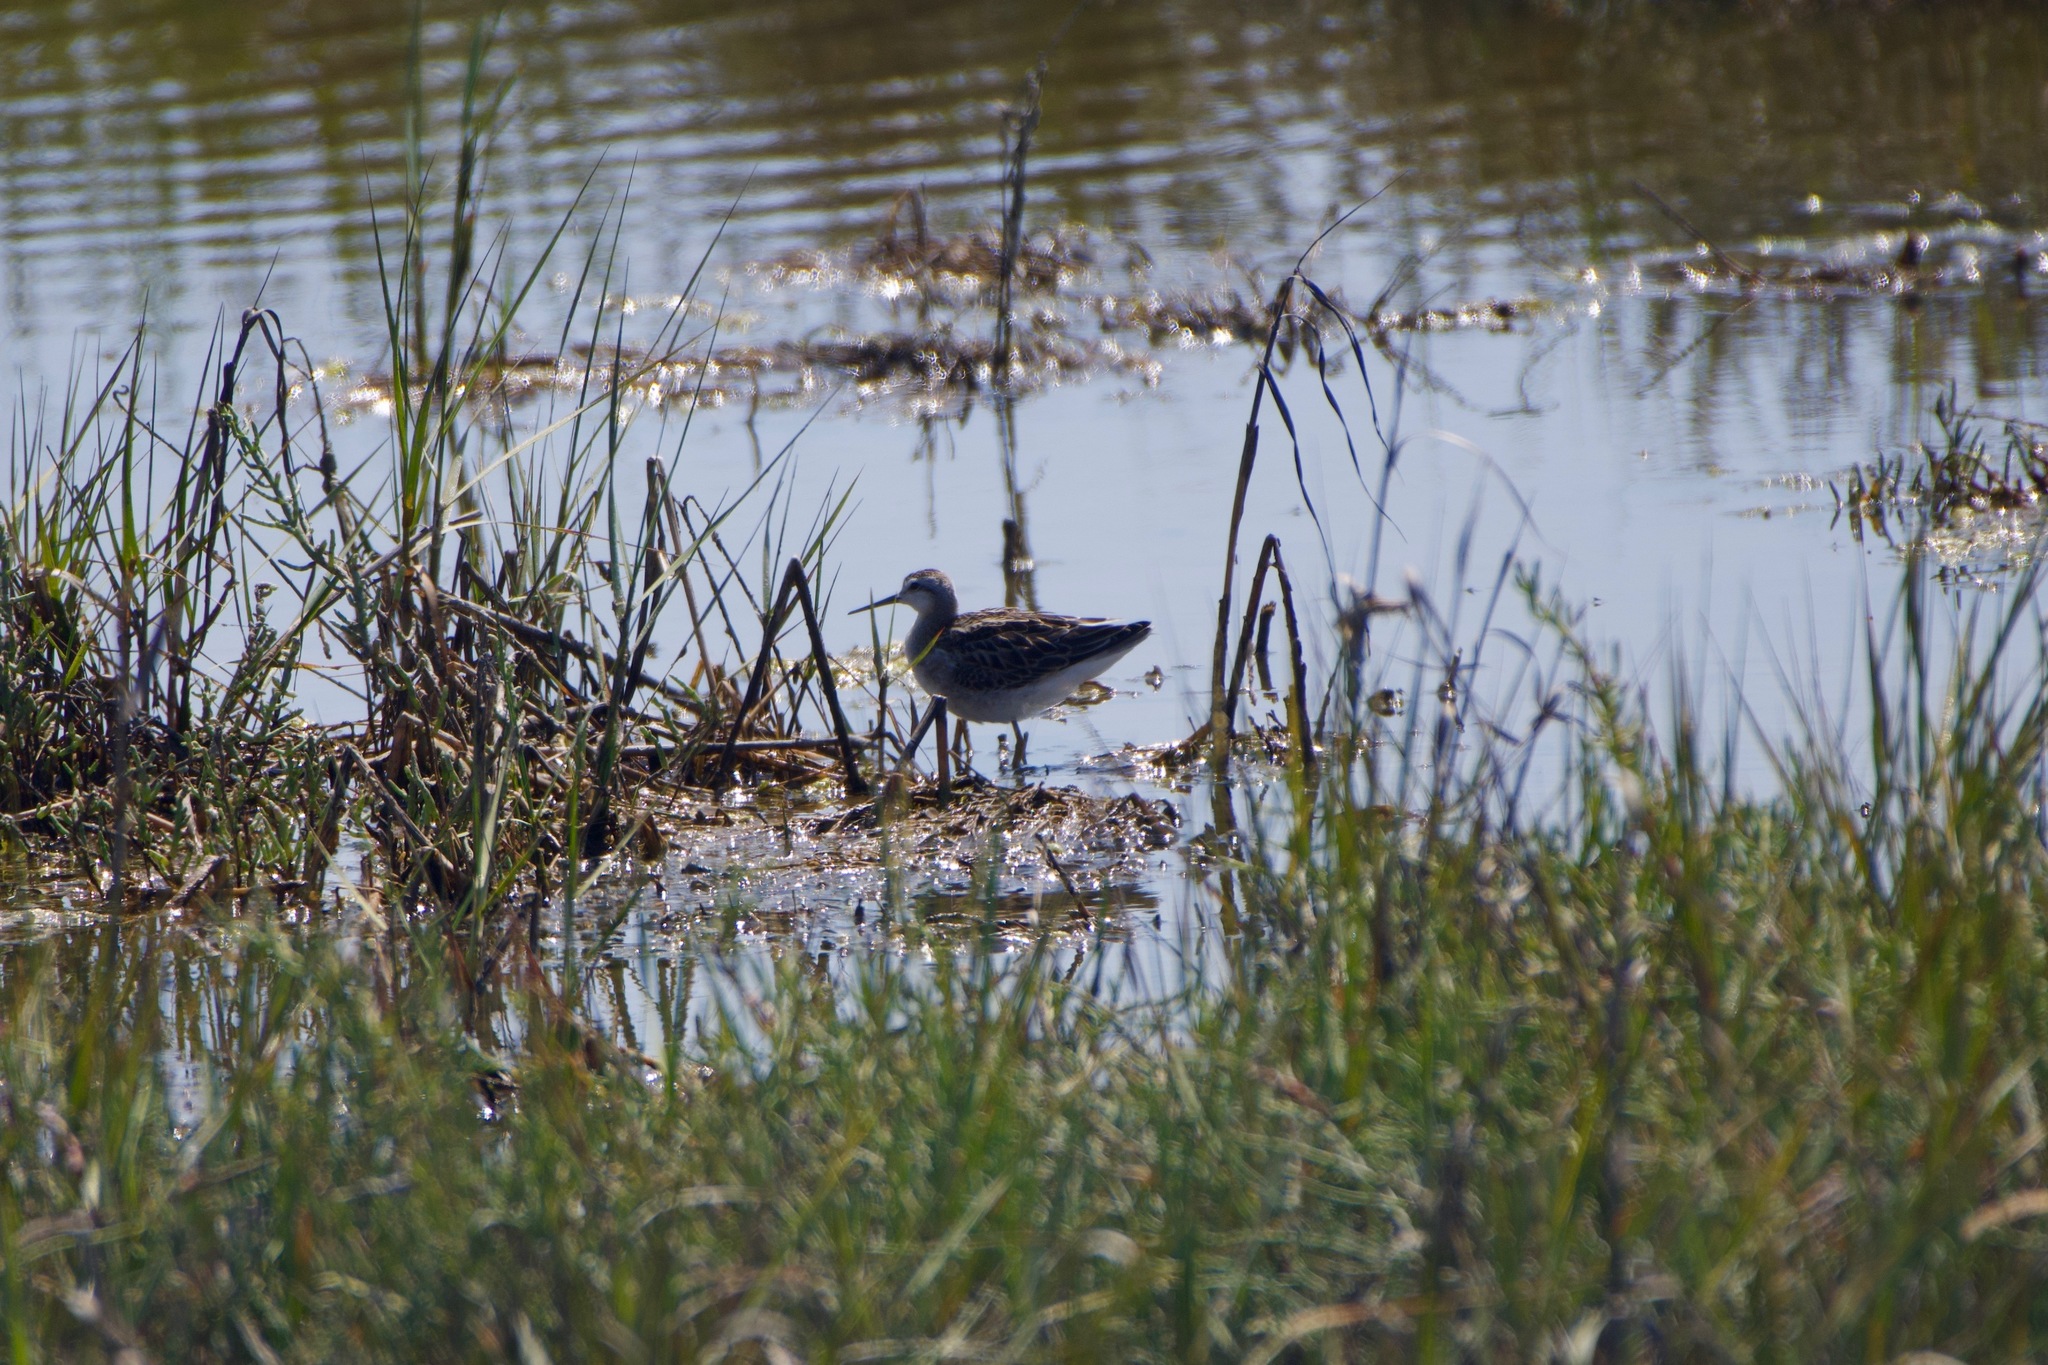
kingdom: Animalia
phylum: Chordata
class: Aves
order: Charadriiformes
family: Scolopacidae
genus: Phalaropus
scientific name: Phalaropus tricolor
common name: Wilson's phalarope
